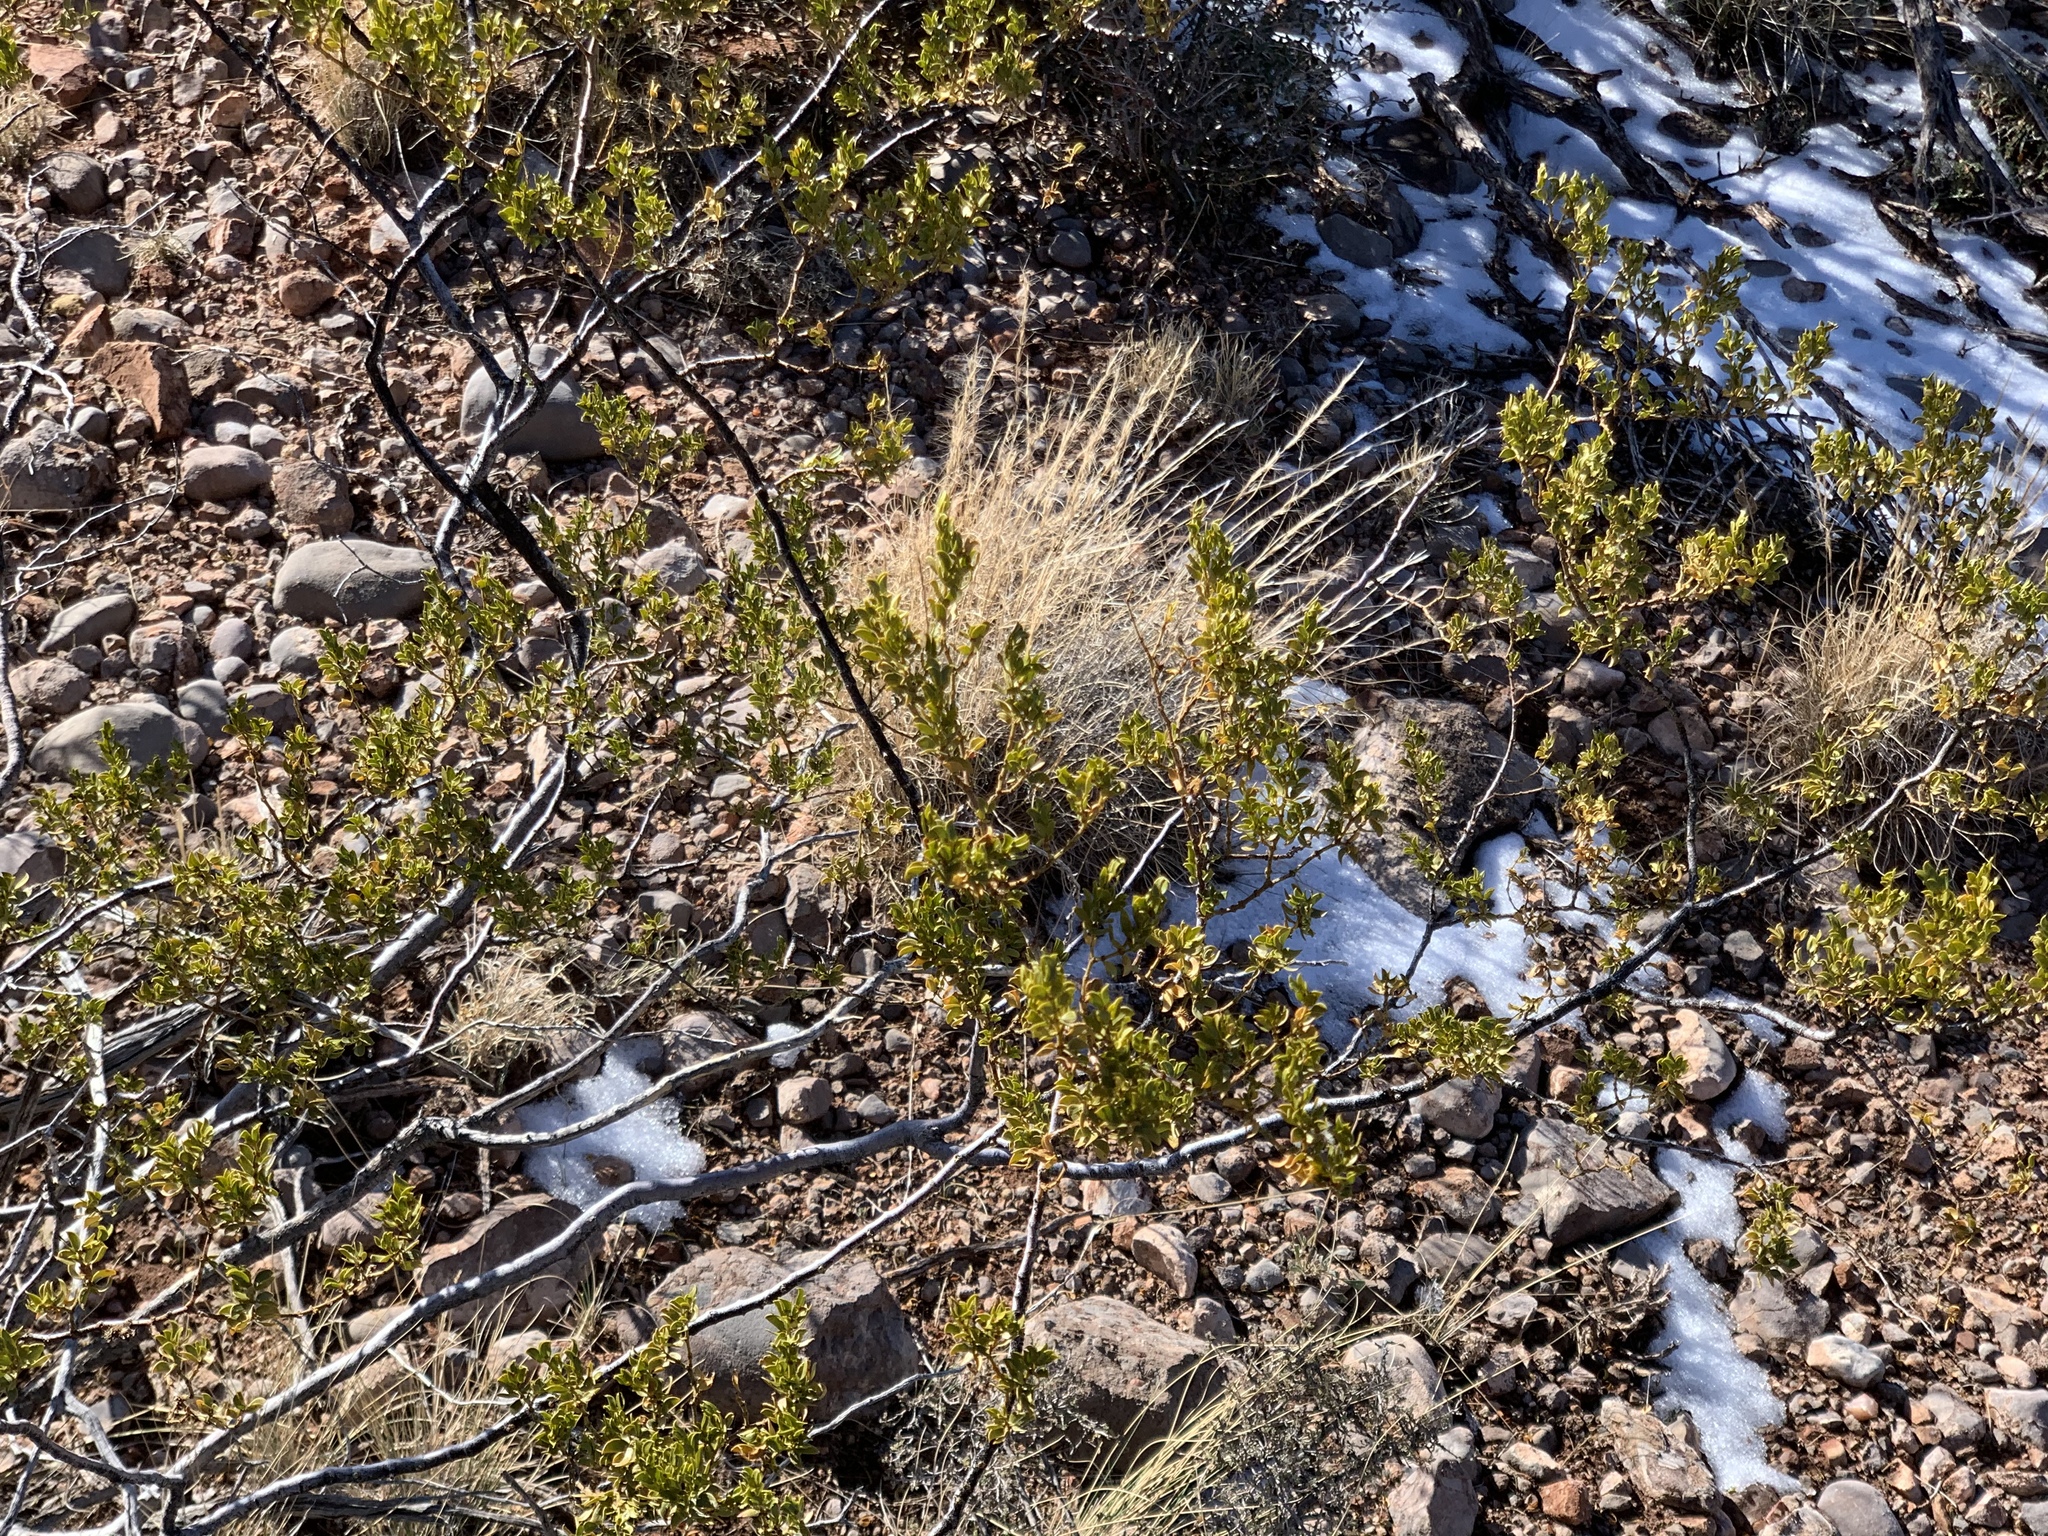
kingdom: Plantae
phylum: Tracheophyta
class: Magnoliopsida
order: Zygophyllales
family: Zygophyllaceae
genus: Larrea
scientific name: Larrea tridentata
